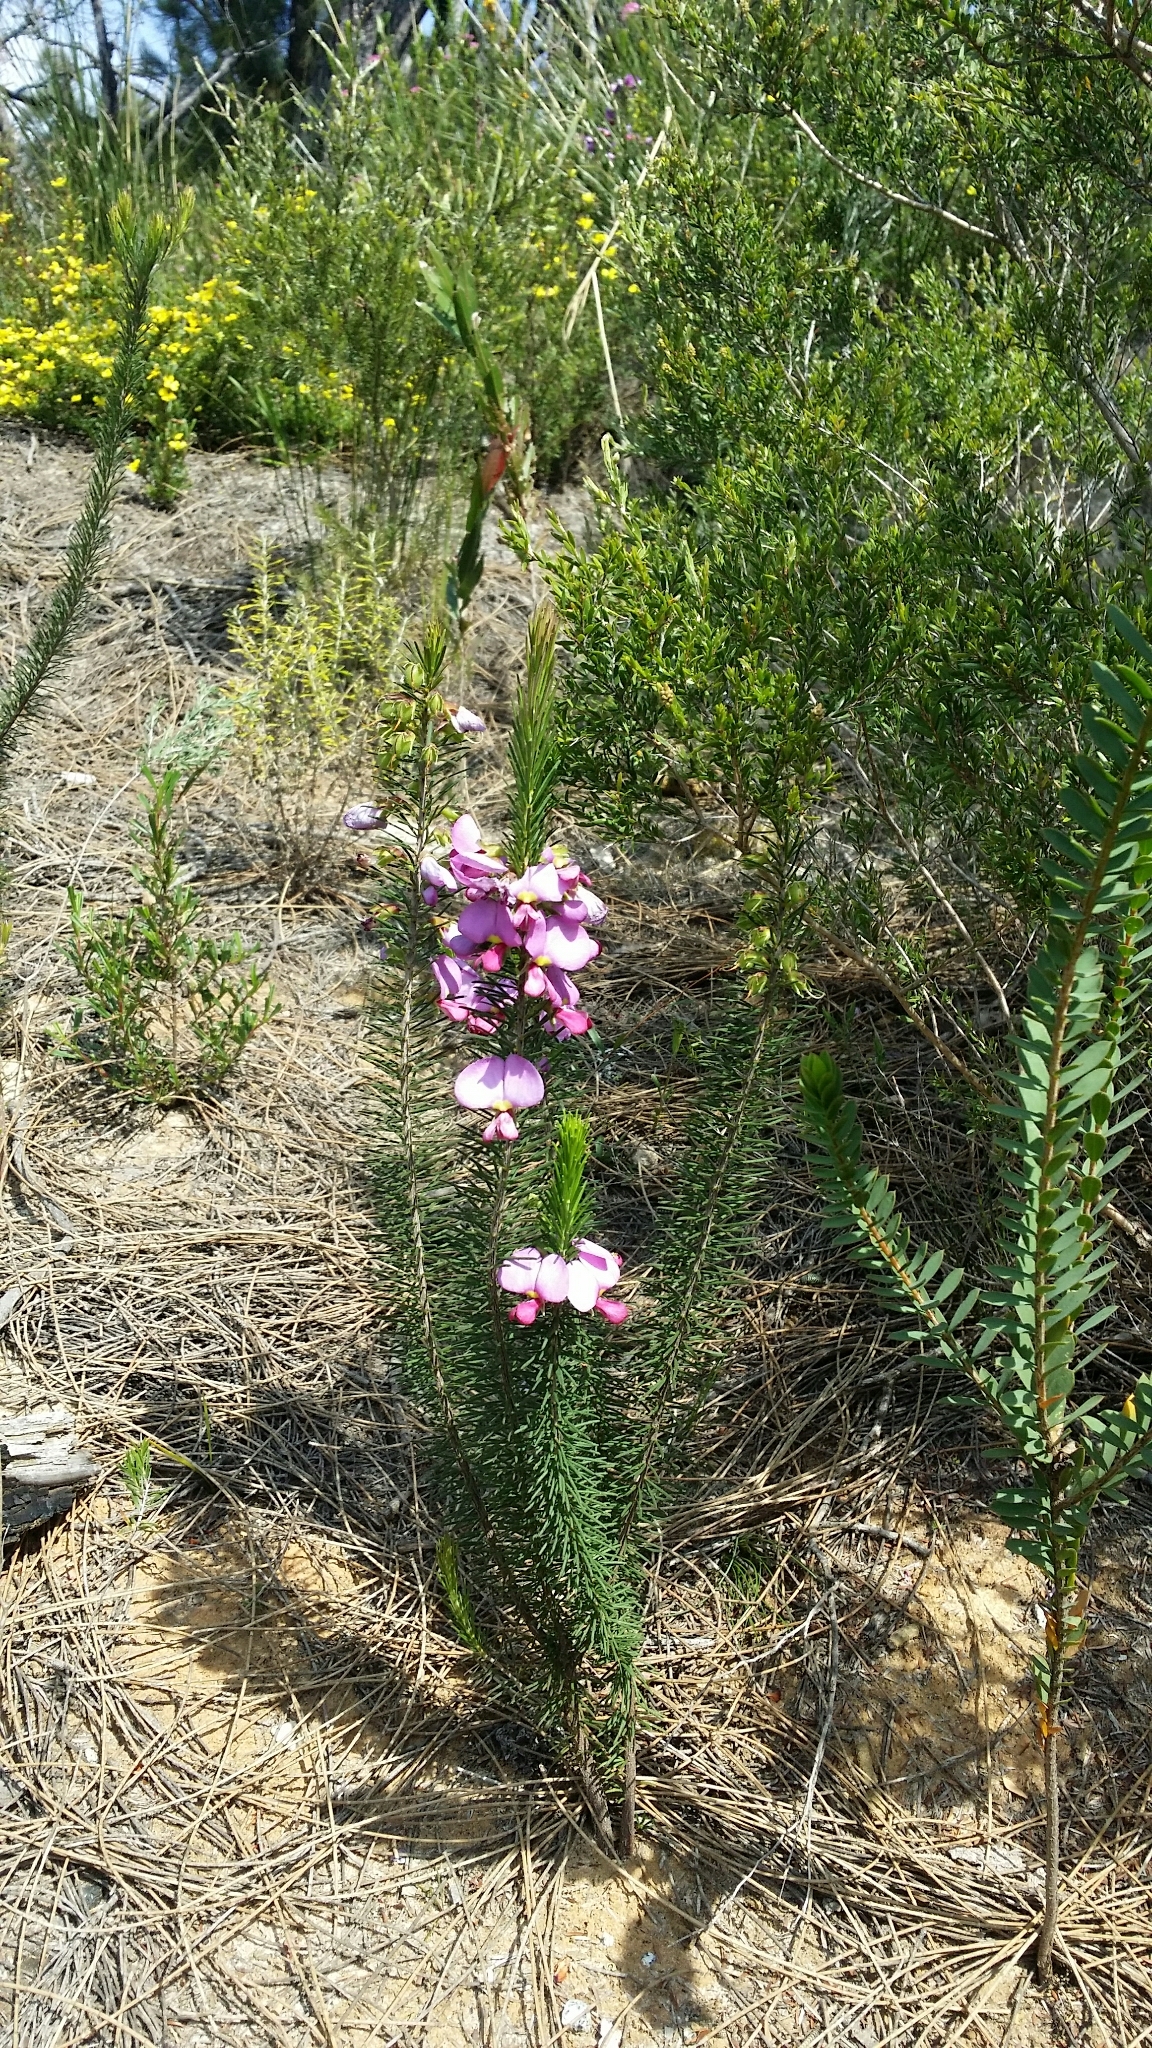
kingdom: Plantae
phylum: Tracheophyta
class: Magnoliopsida
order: Fabales
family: Fabaceae
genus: Gompholobium
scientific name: Gompholobium scabrum
